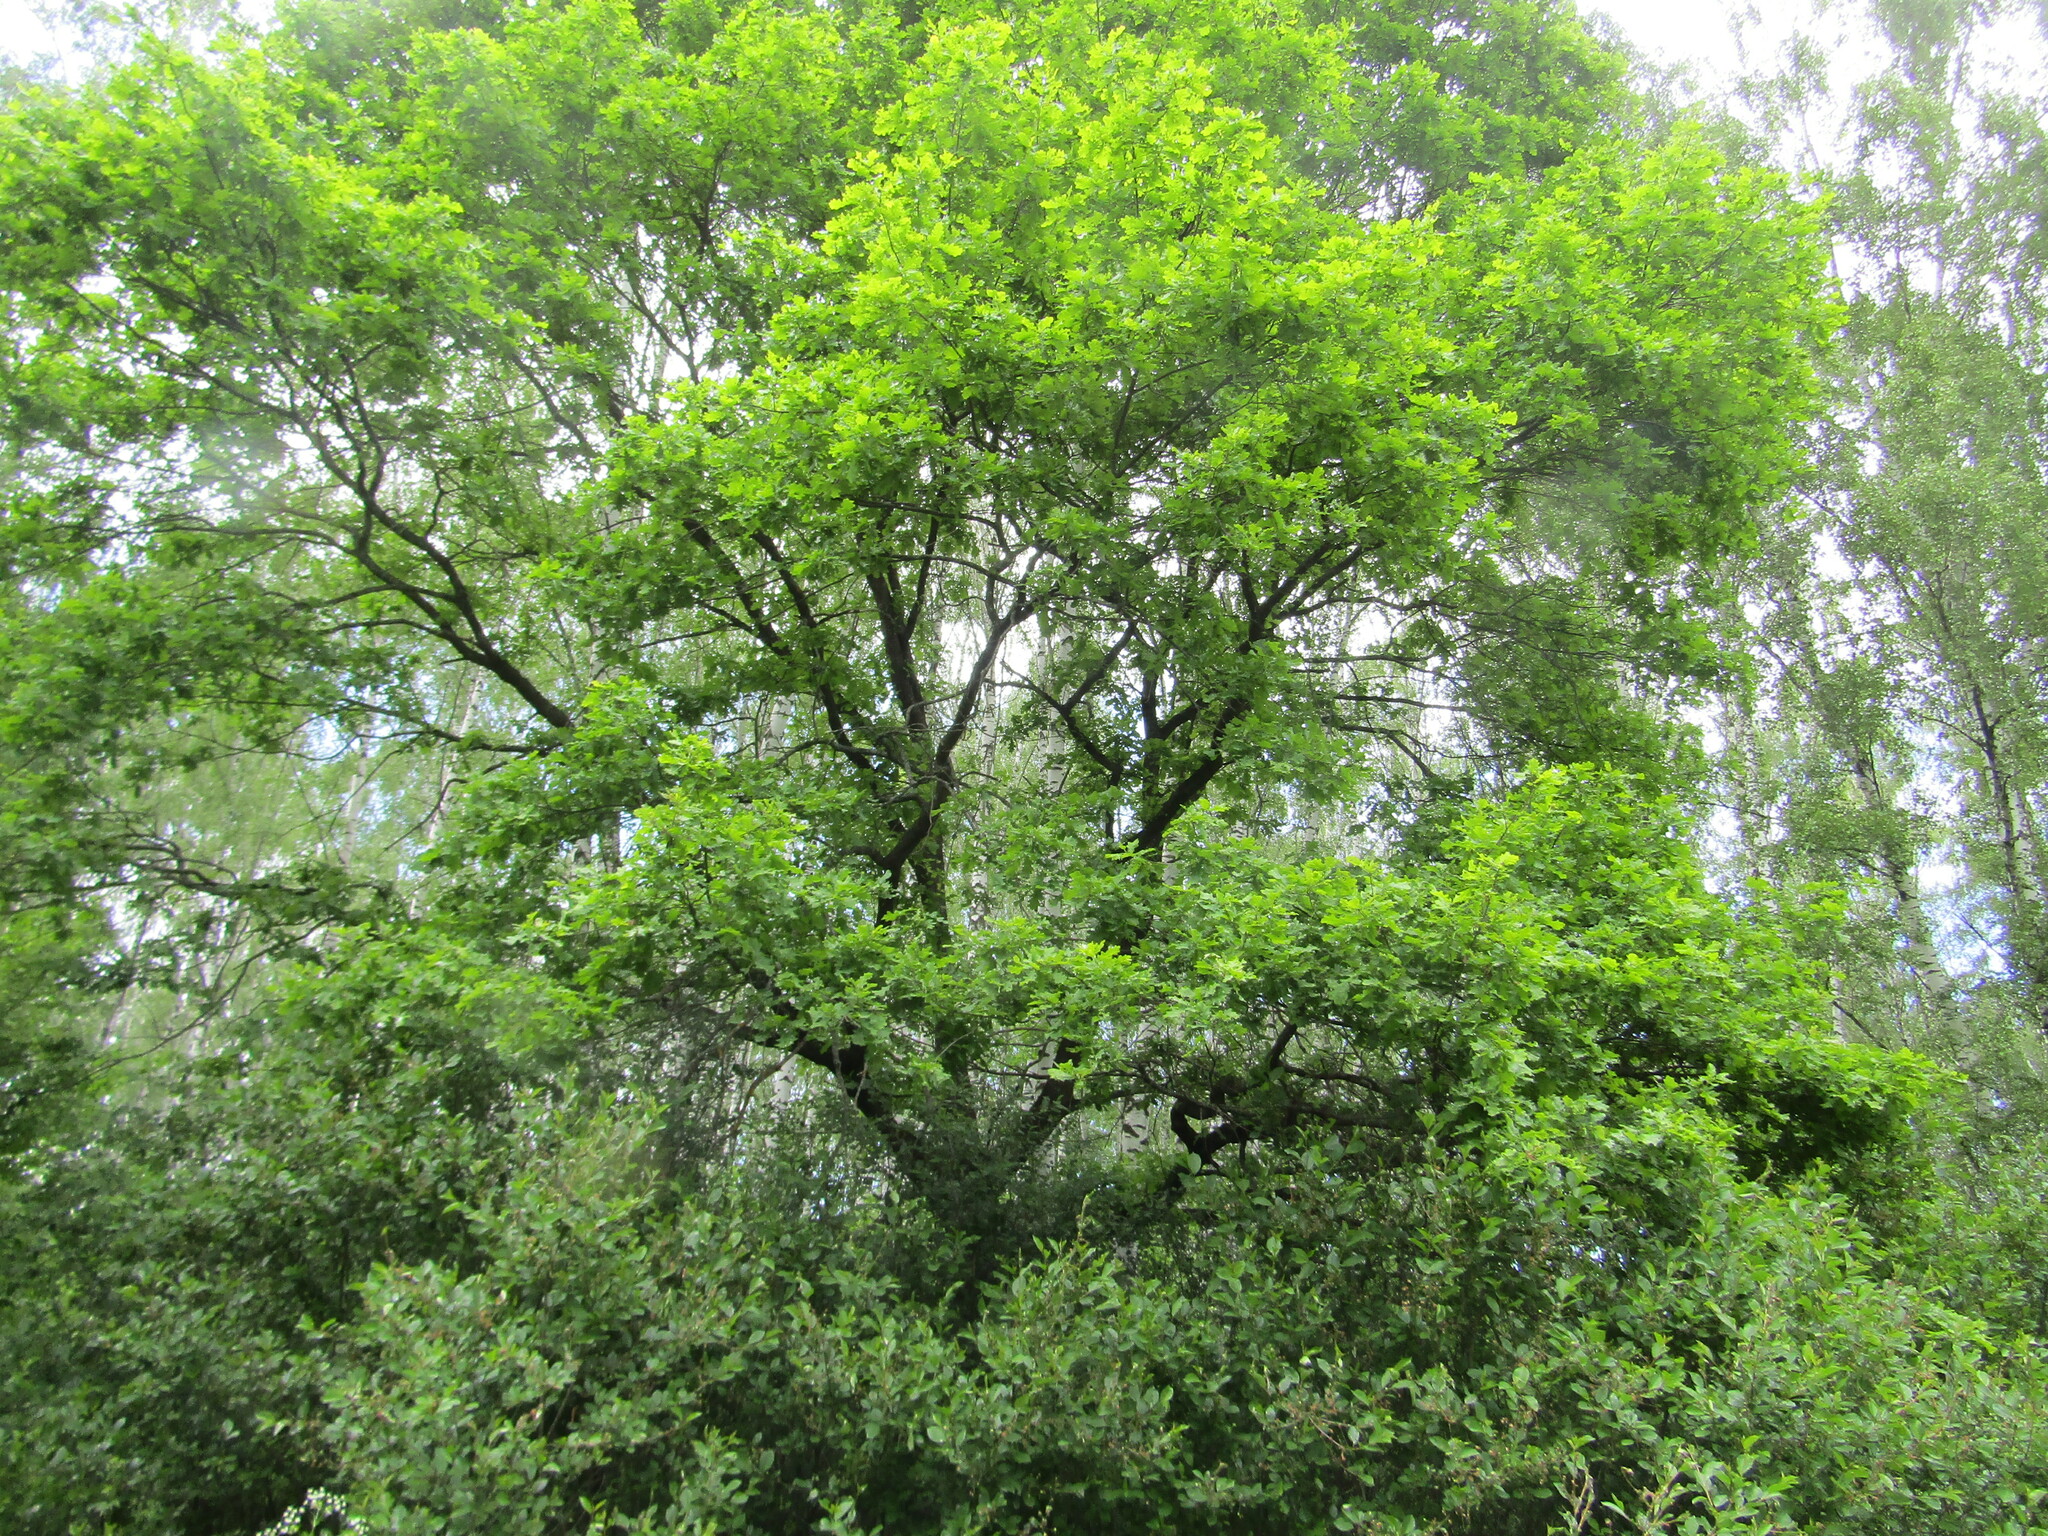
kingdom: Plantae
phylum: Tracheophyta
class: Magnoliopsida
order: Fagales
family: Fagaceae
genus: Quercus
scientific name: Quercus robur
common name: Pedunculate oak
